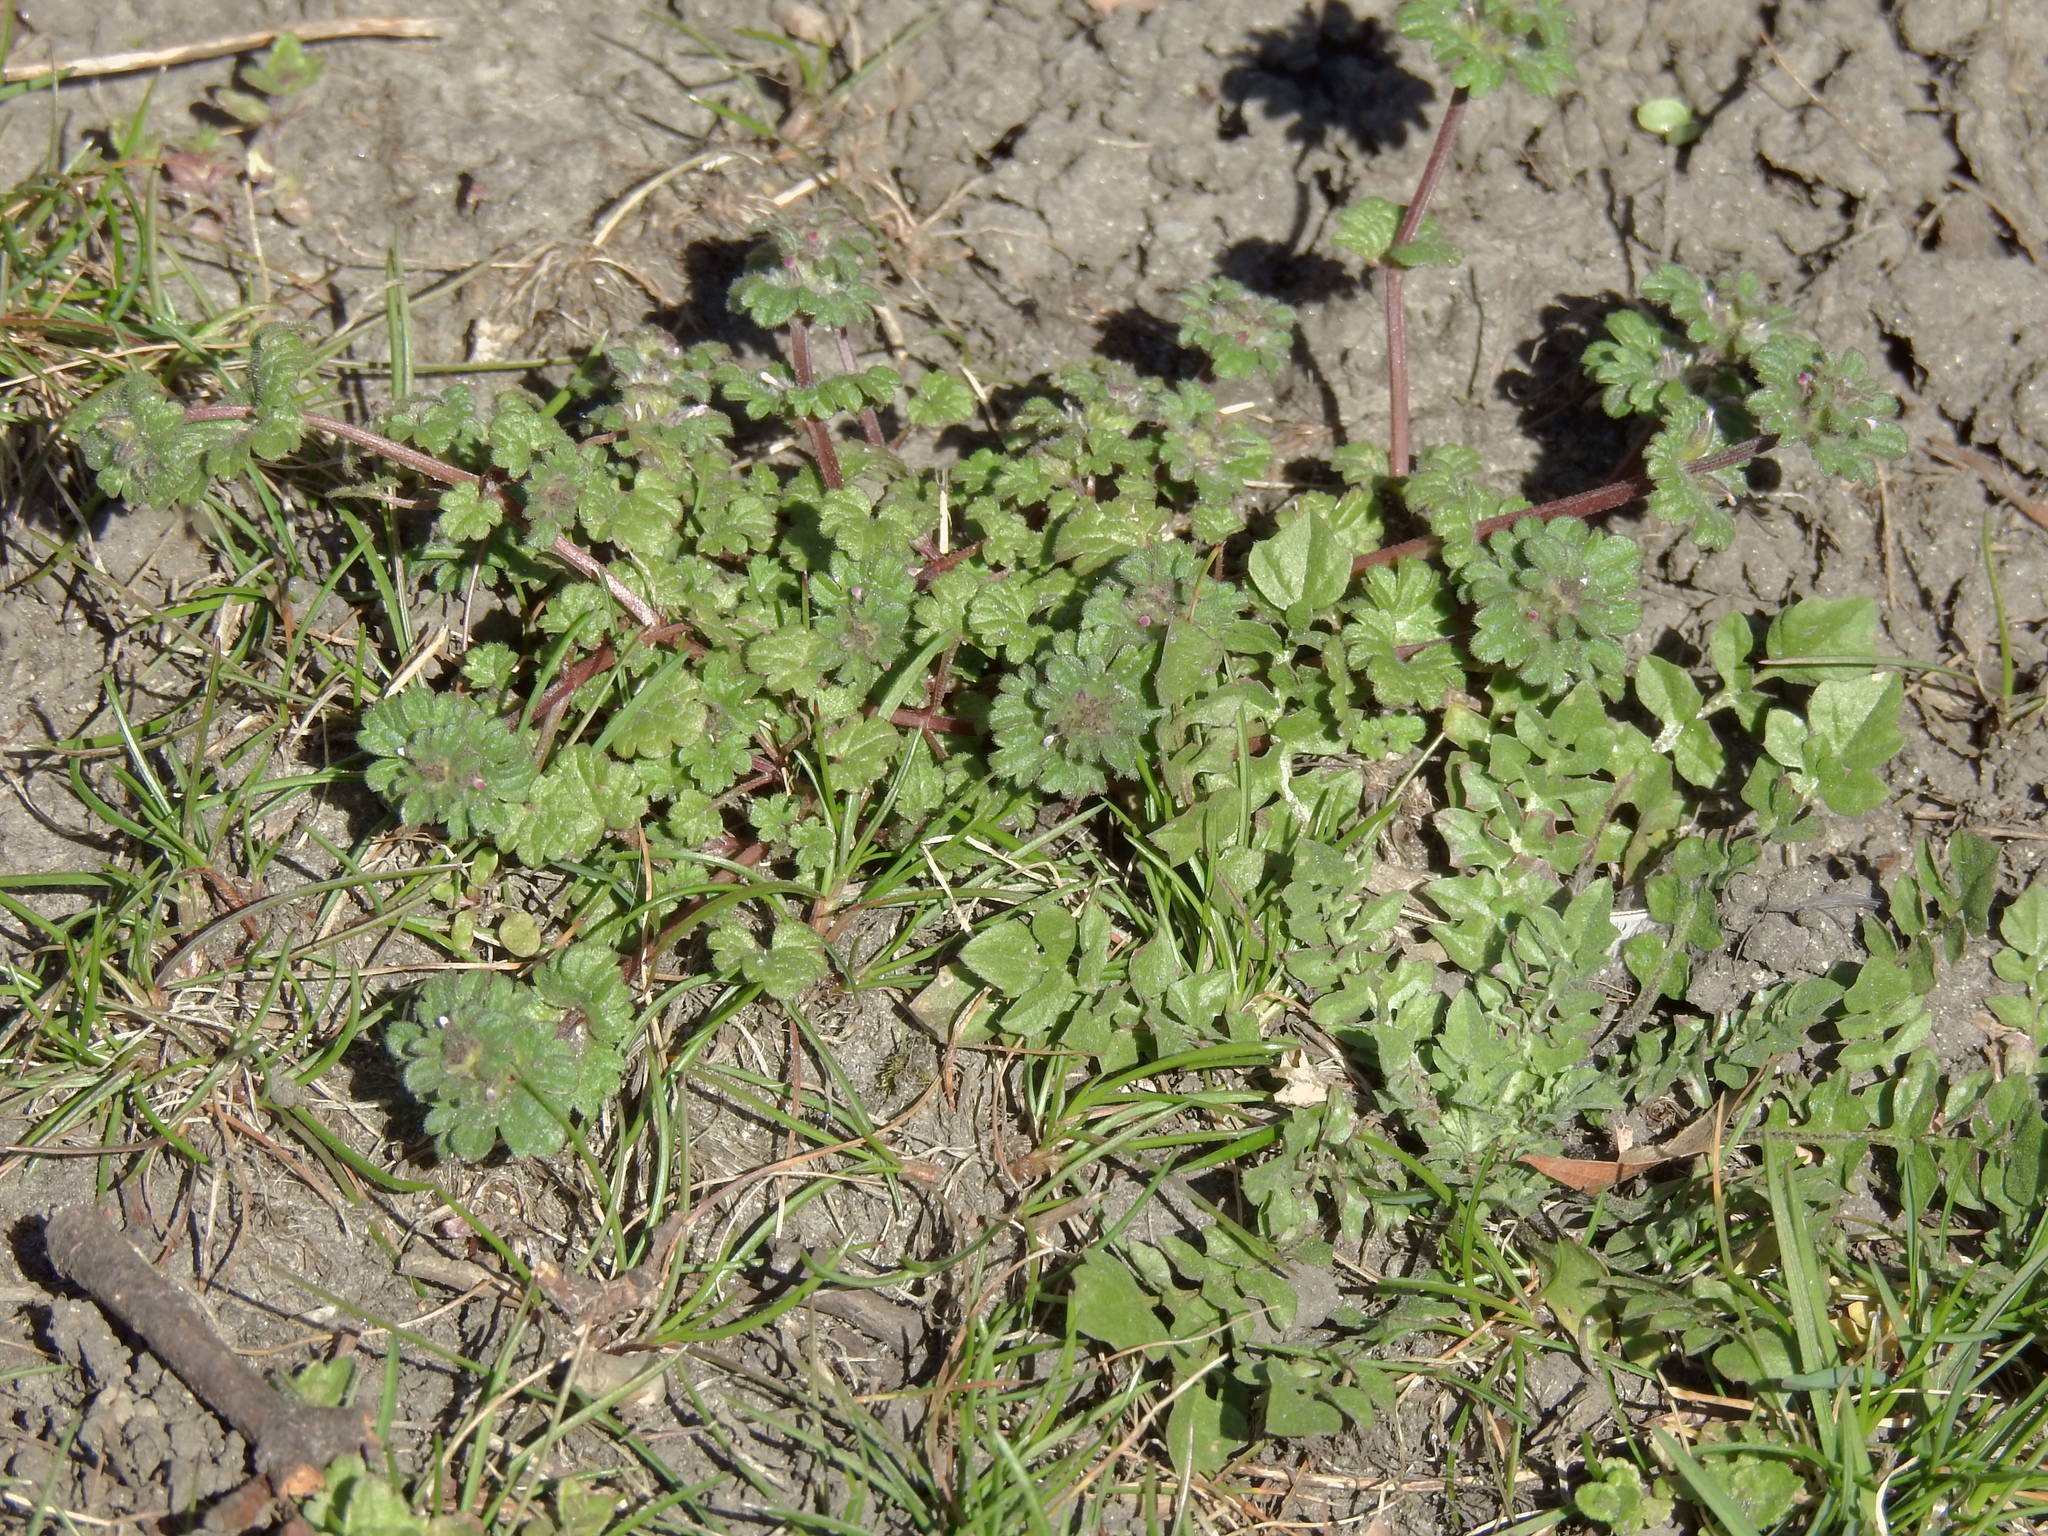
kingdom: Plantae
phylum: Tracheophyta
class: Magnoliopsida
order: Lamiales
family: Lamiaceae
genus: Lamium
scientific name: Lamium amplexicaule
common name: Henbit dead-nettle
